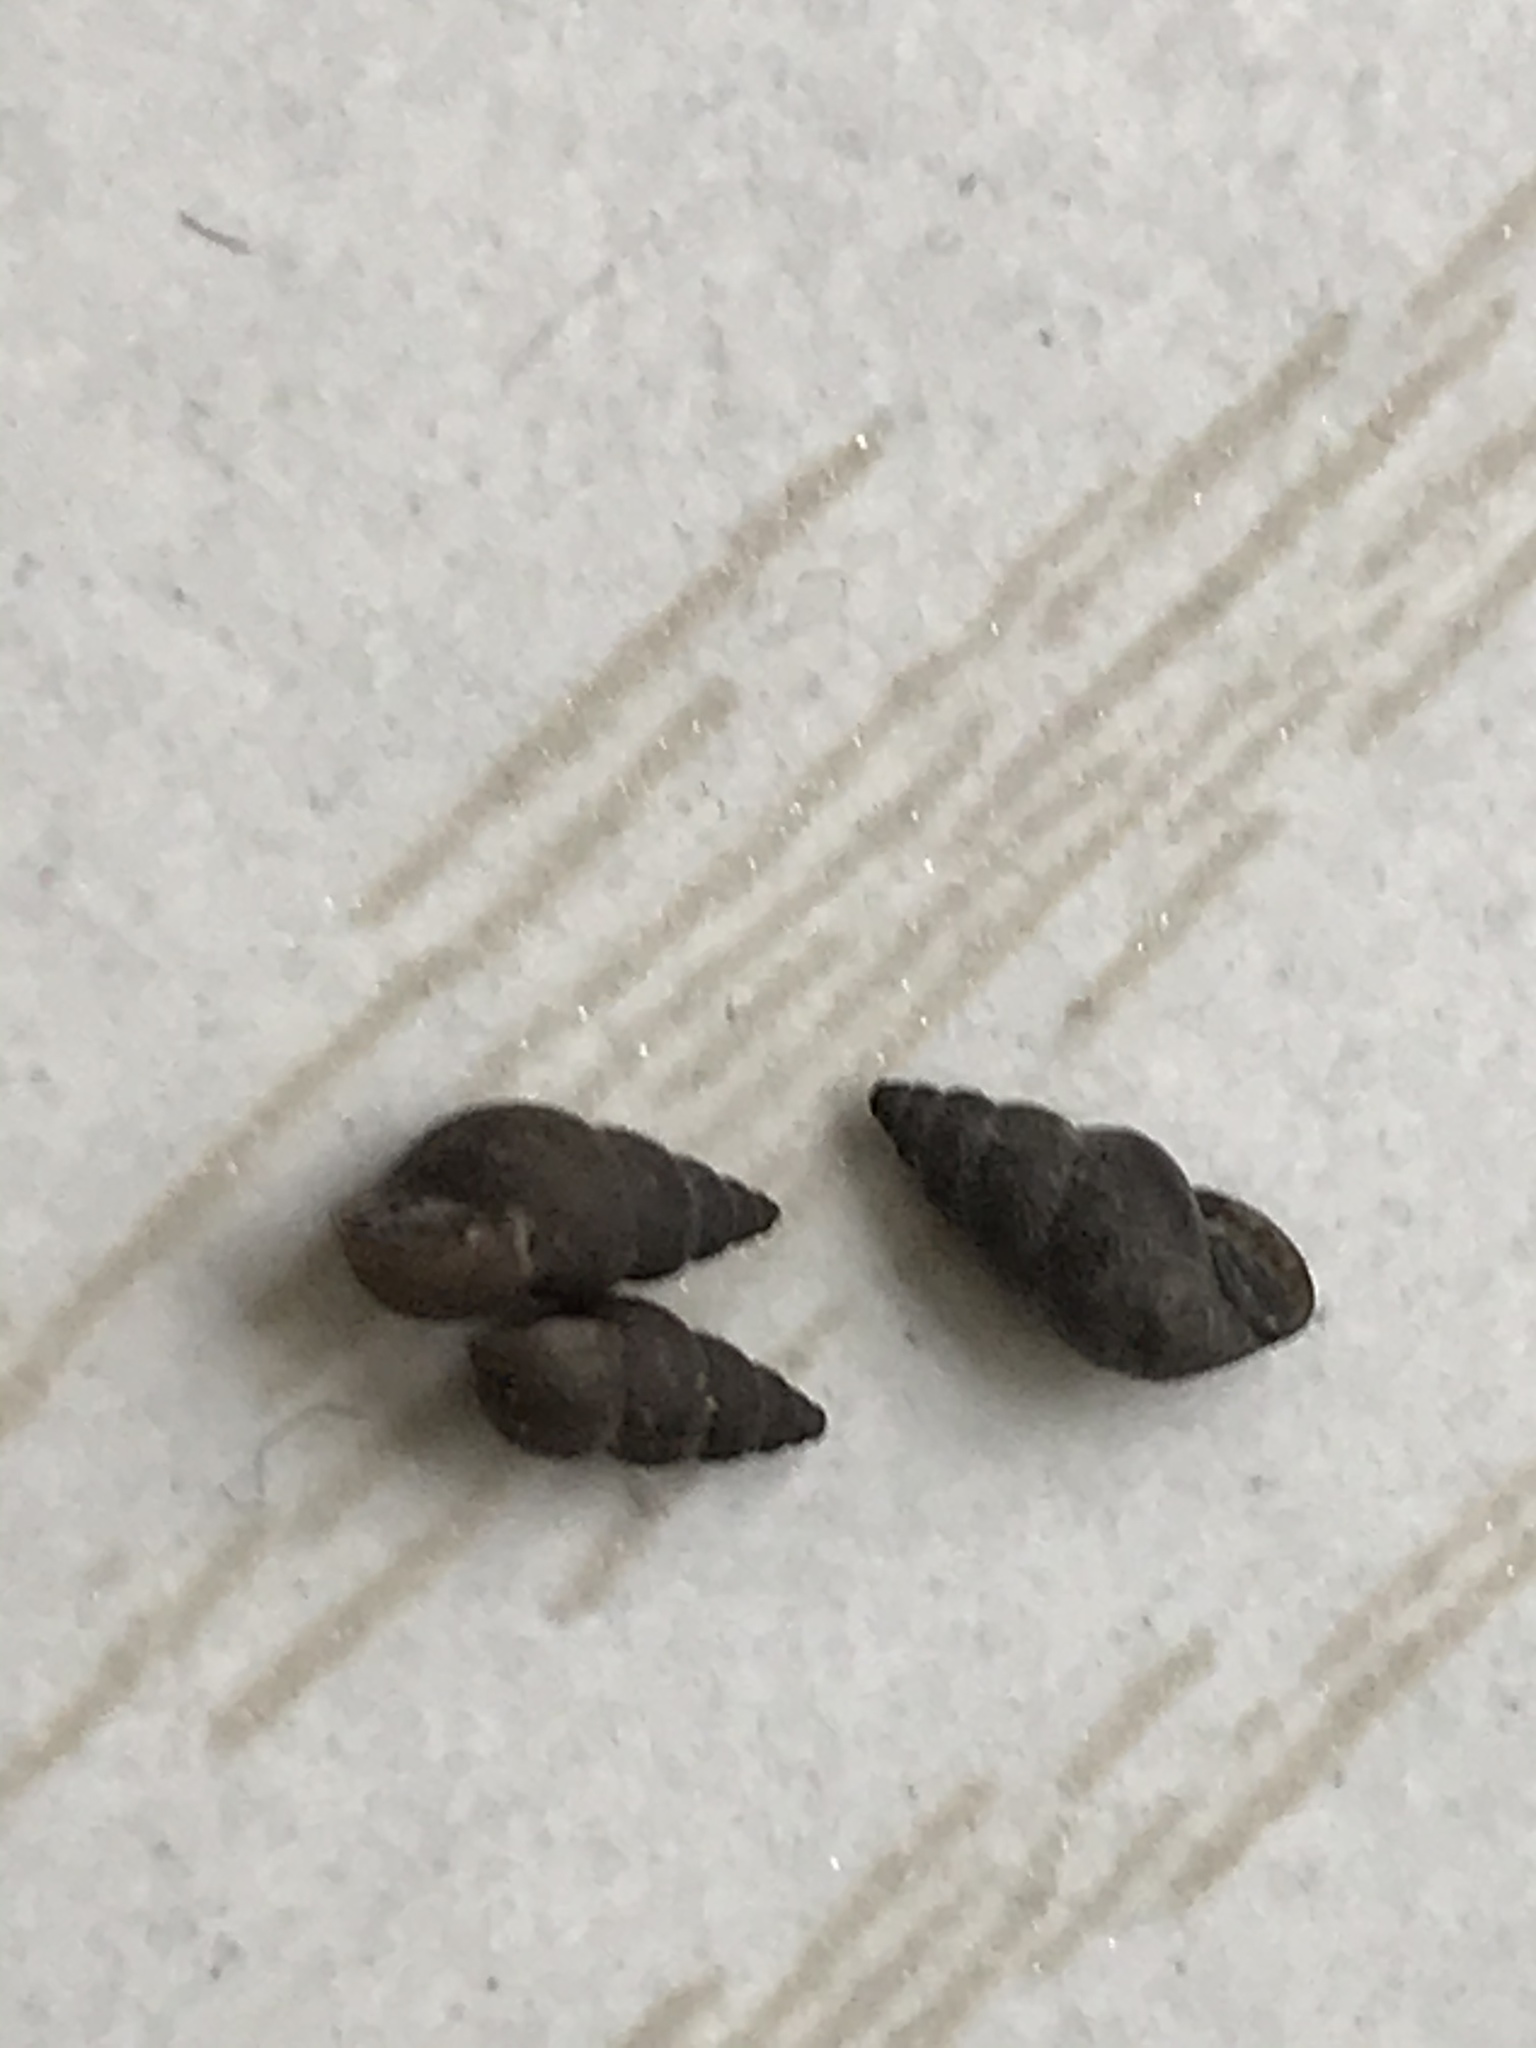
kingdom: Animalia
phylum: Mollusca
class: Gastropoda
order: Littorinimorpha
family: Tateidae
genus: Potamopyrgus
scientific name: Potamopyrgus antipodarum
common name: Jenkins' spire snail
